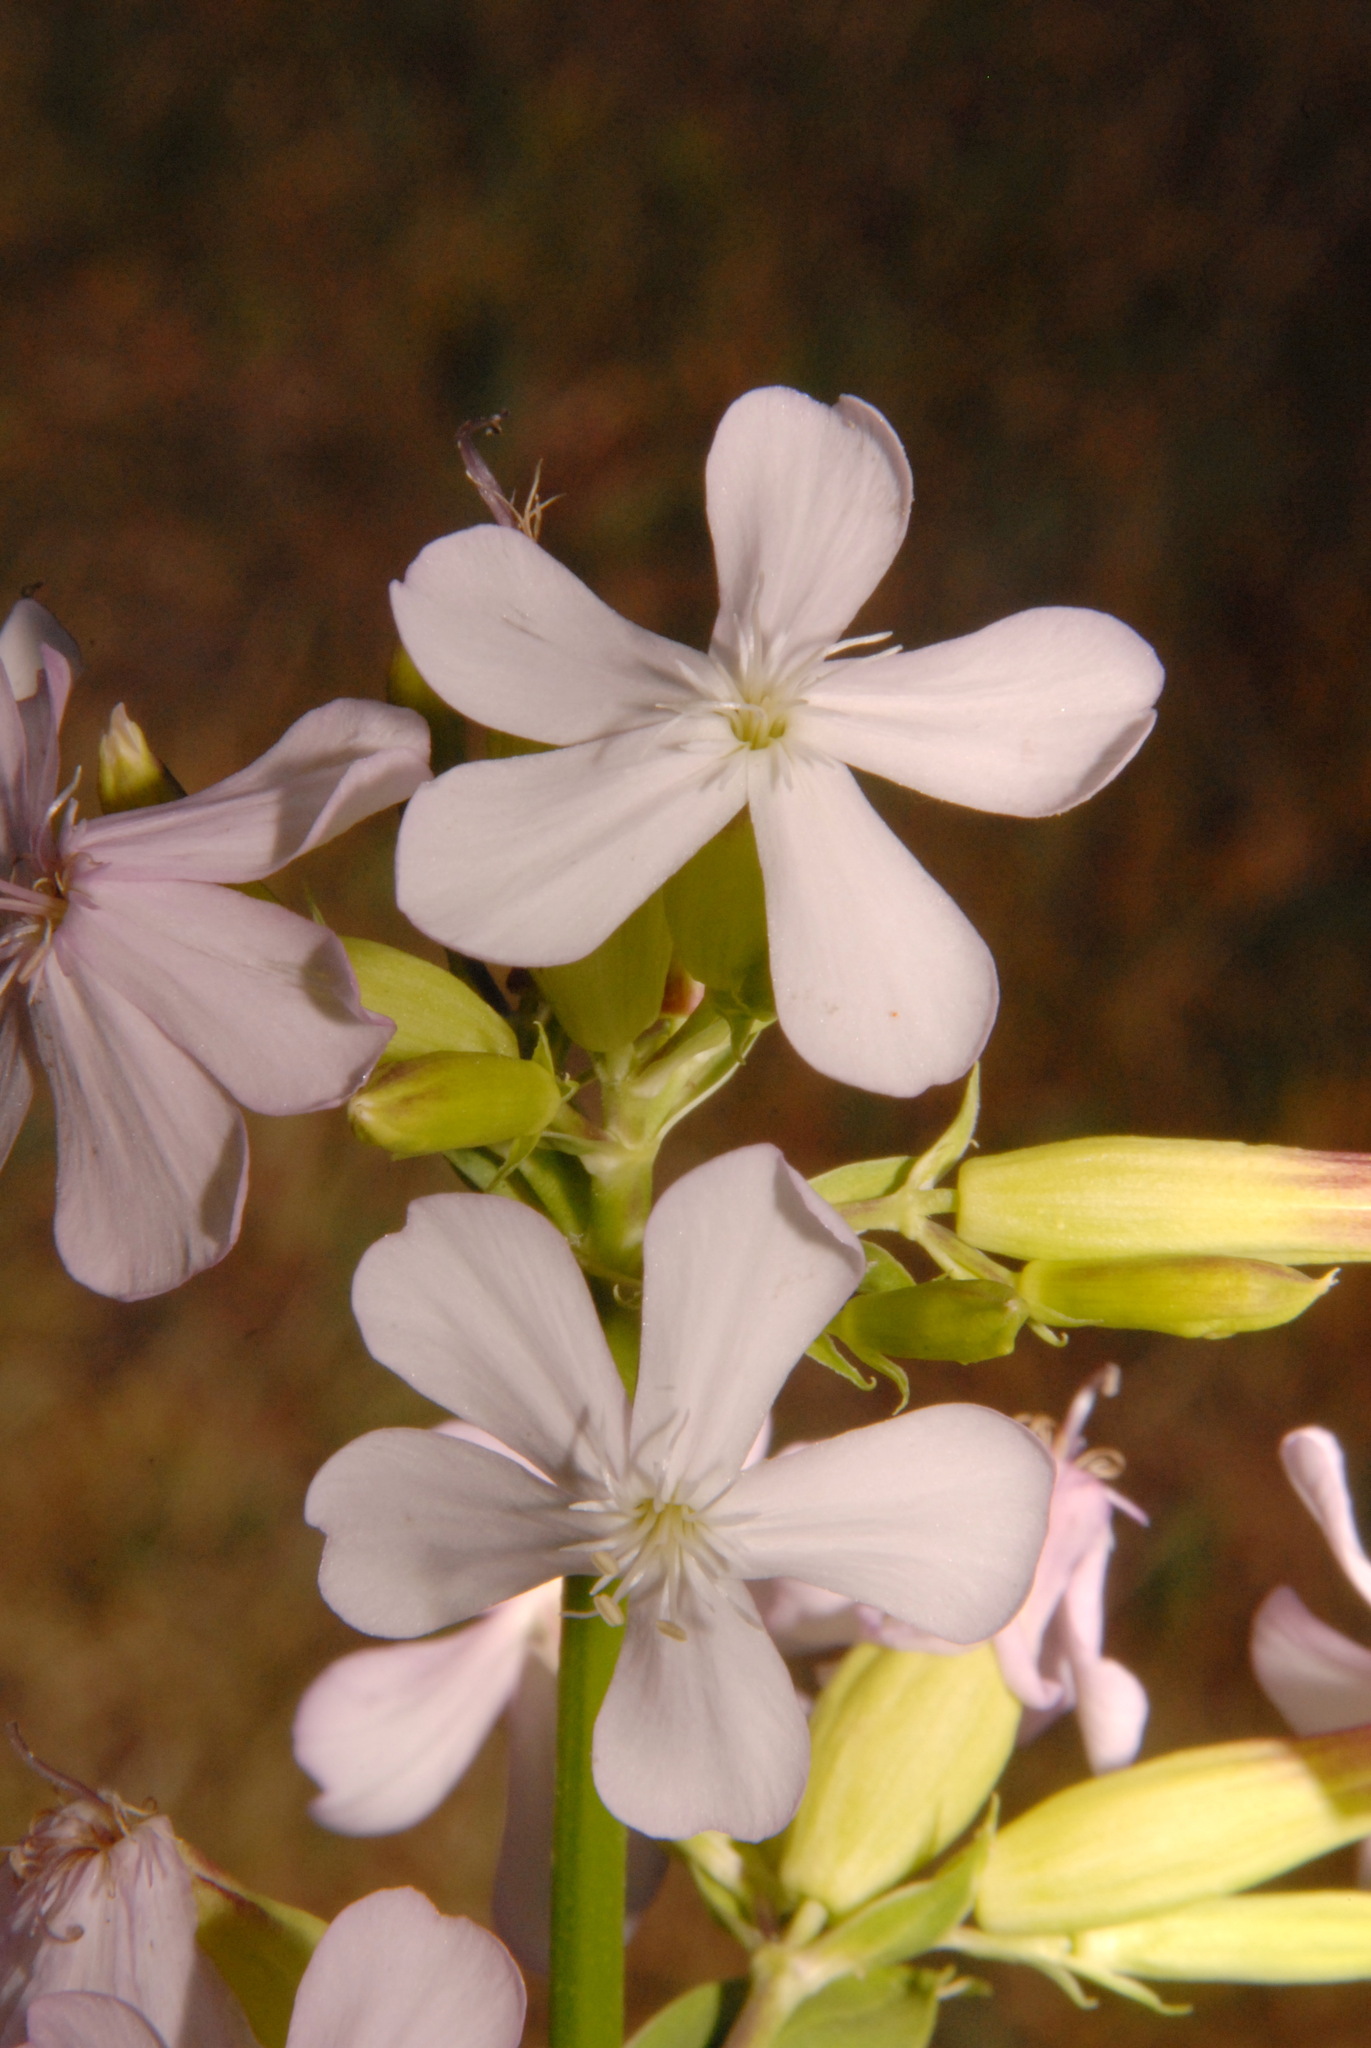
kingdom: Plantae
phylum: Tracheophyta
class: Magnoliopsida
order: Caryophyllales
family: Caryophyllaceae
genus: Saponaria
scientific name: Saponaria officinalis
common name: Soapwort
